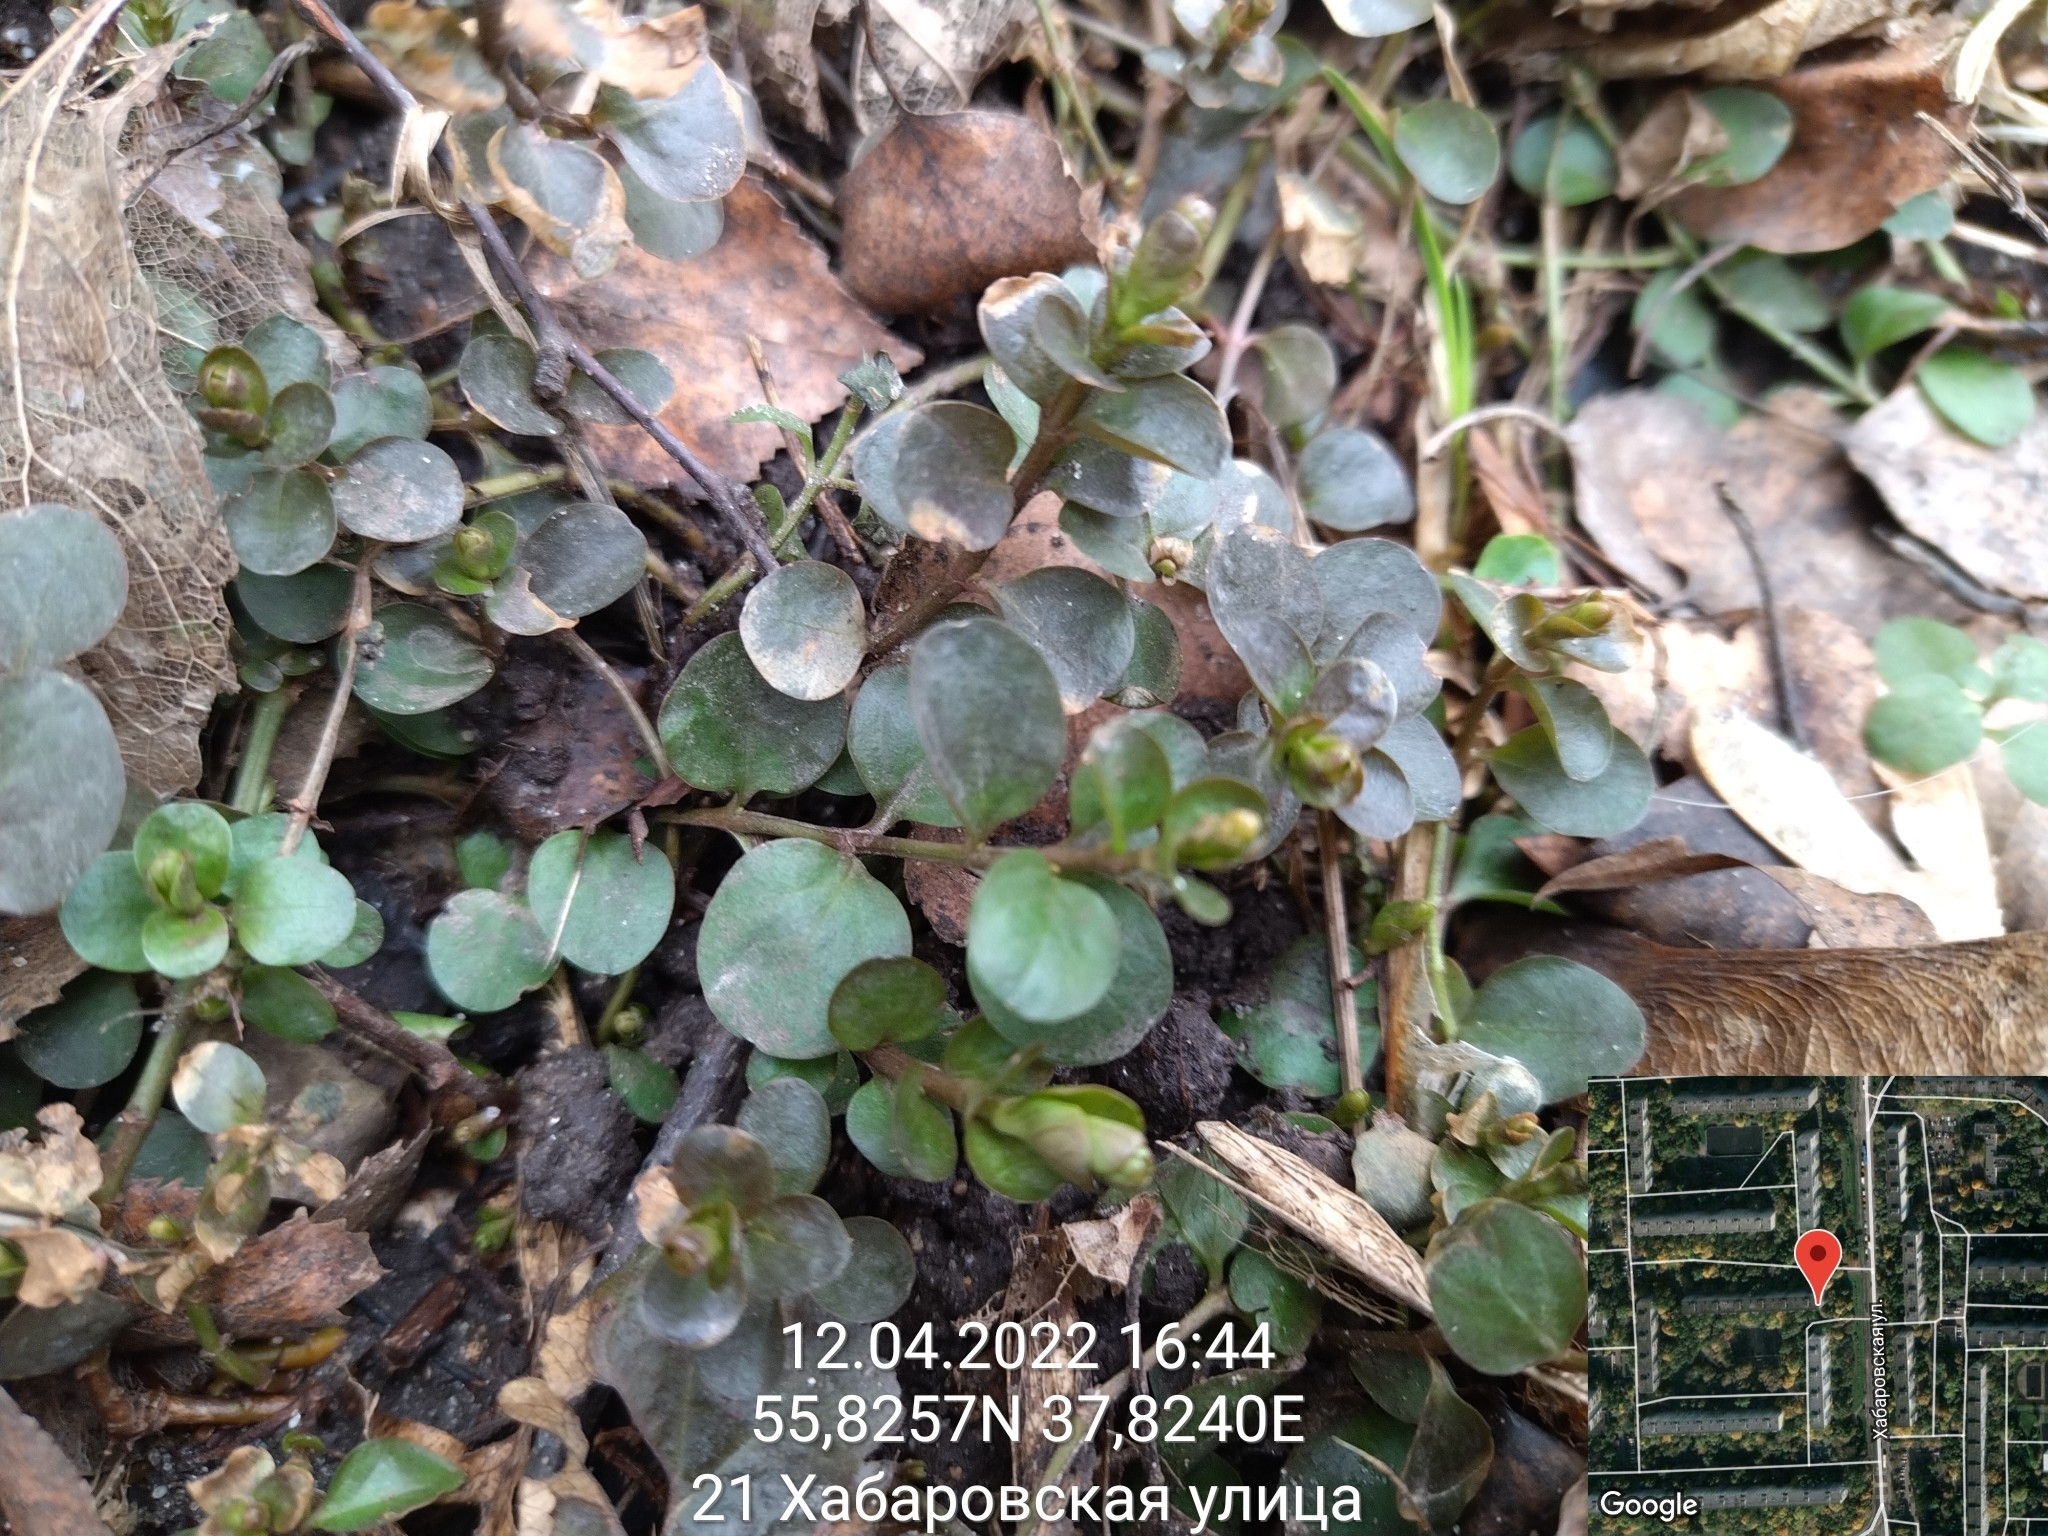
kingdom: Plantae
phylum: Tracheophyta
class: Magnoliopsida
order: Ericales
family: Primulaceae
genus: Lysimachia
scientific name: Lysimachia nummularia
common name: Moneywort
